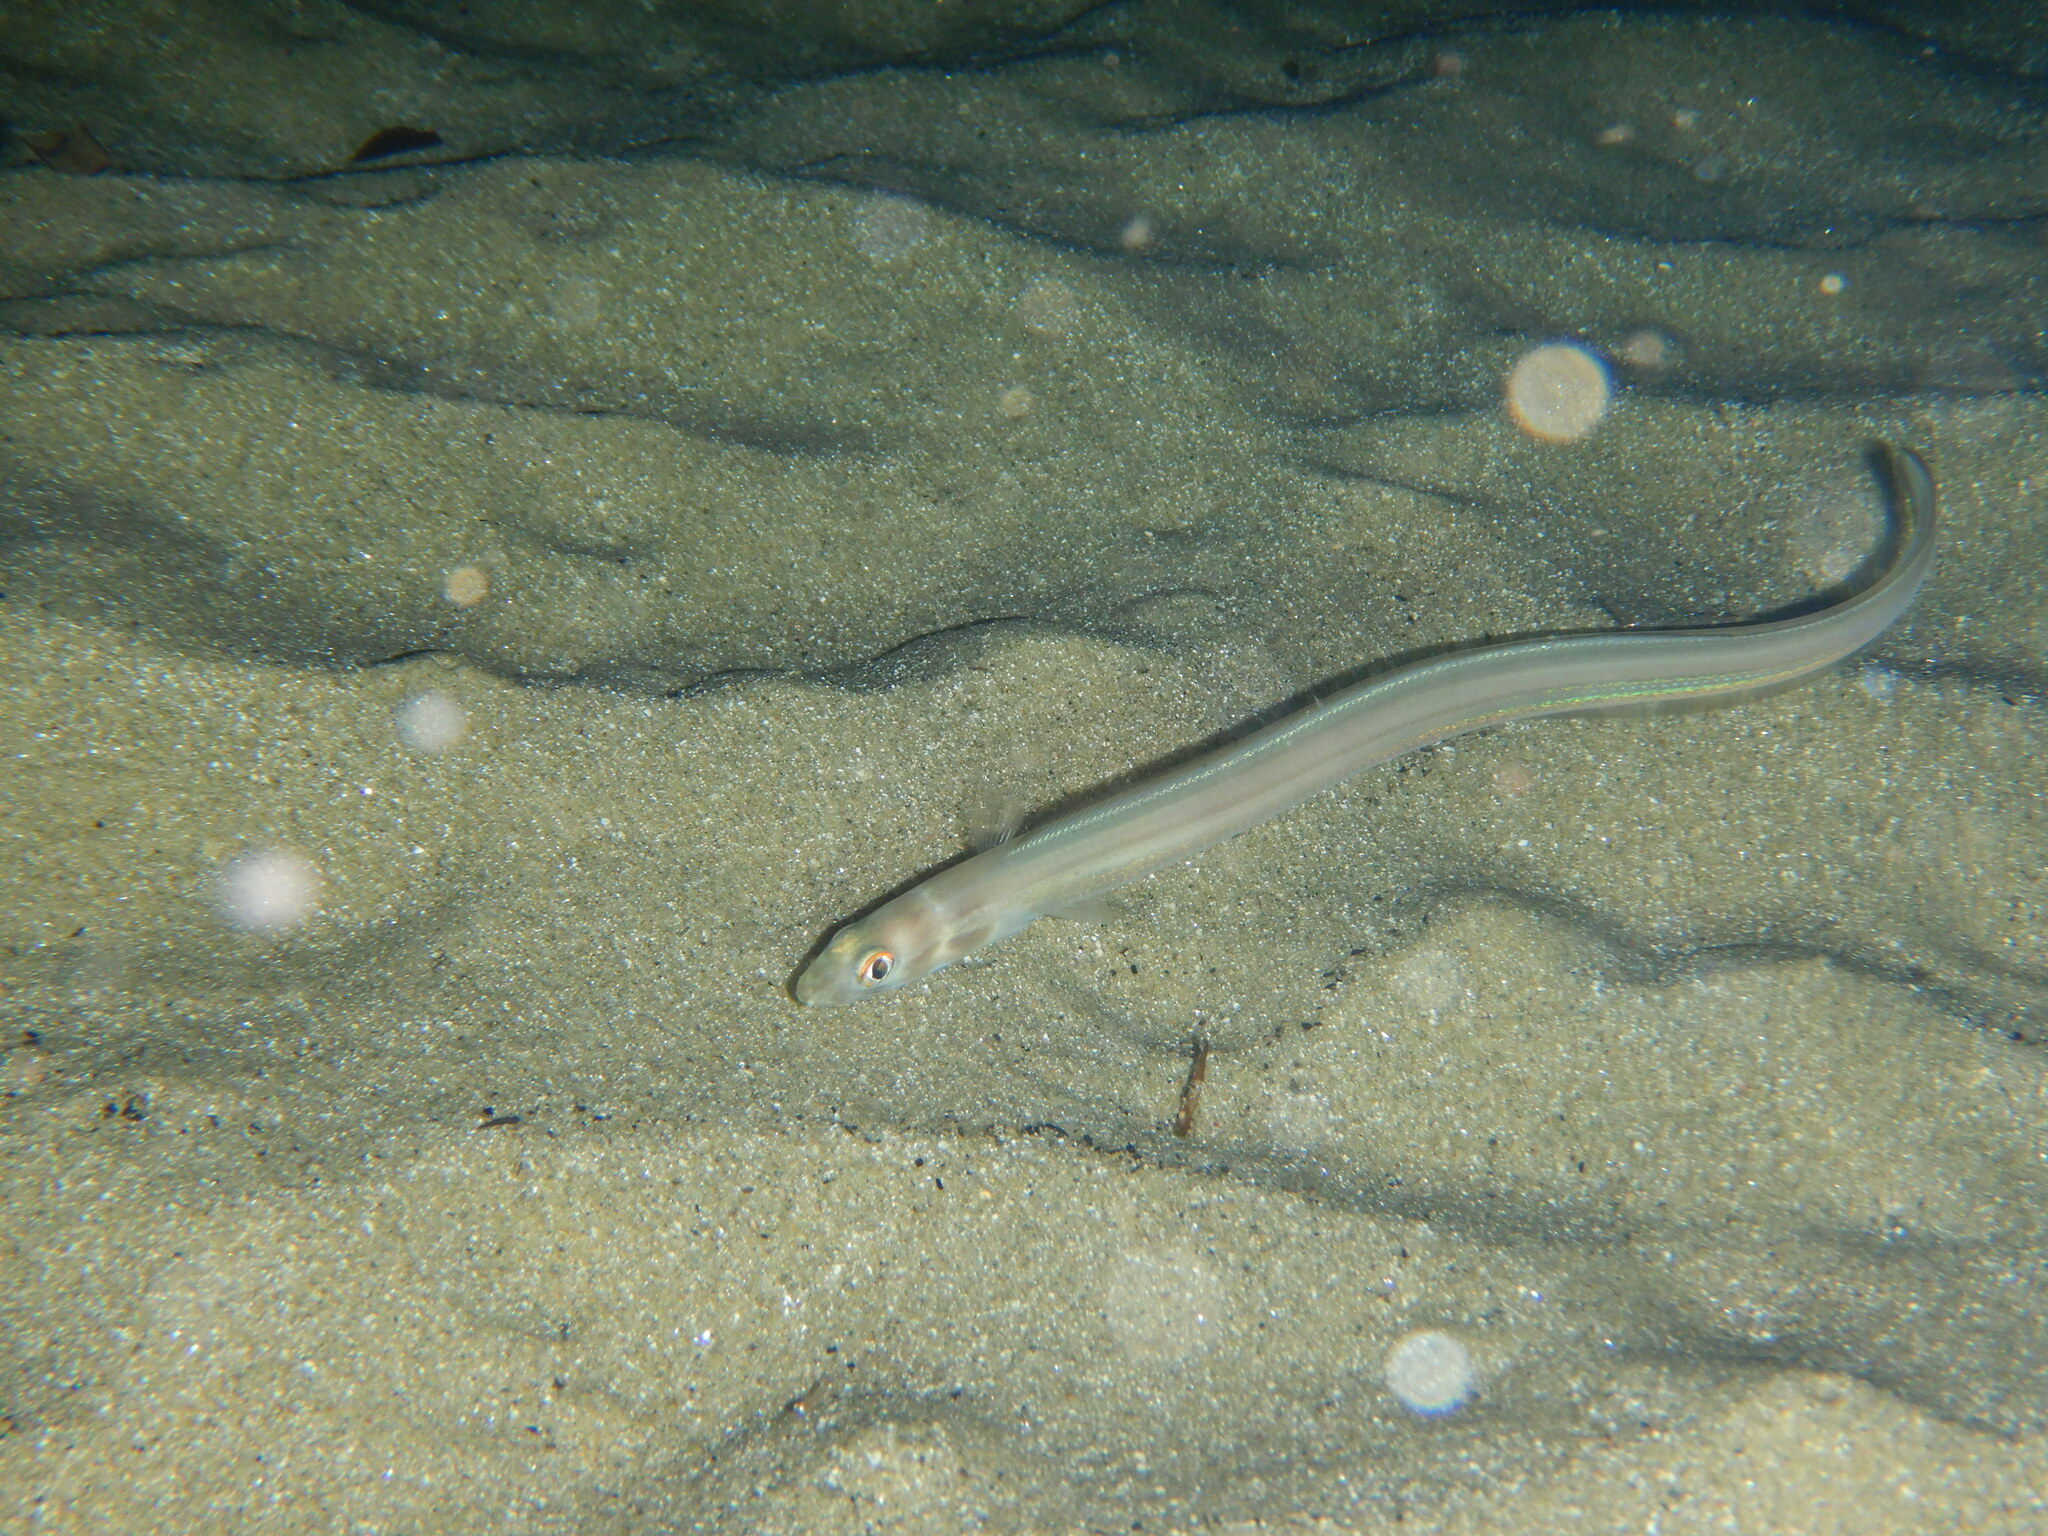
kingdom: Animalia
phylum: Chordata
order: Anguilliformes
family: Congridae
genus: Ariosoma
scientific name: Ariosoma balearicum
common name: Bandtooth conger
